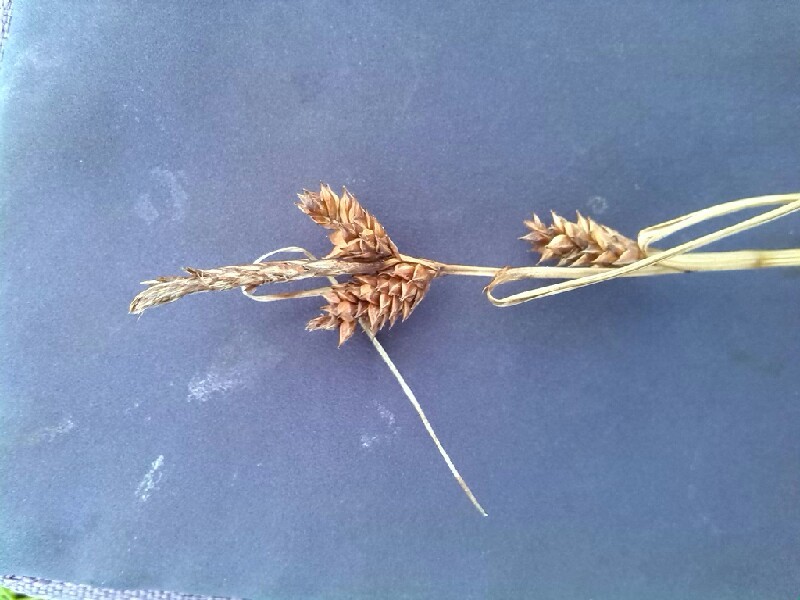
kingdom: Plantae
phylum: Tracheophyta
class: Liliopsida
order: Poales
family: Cyperaceae
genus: Carex
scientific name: Carex extensa
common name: Long-bracted sedge
